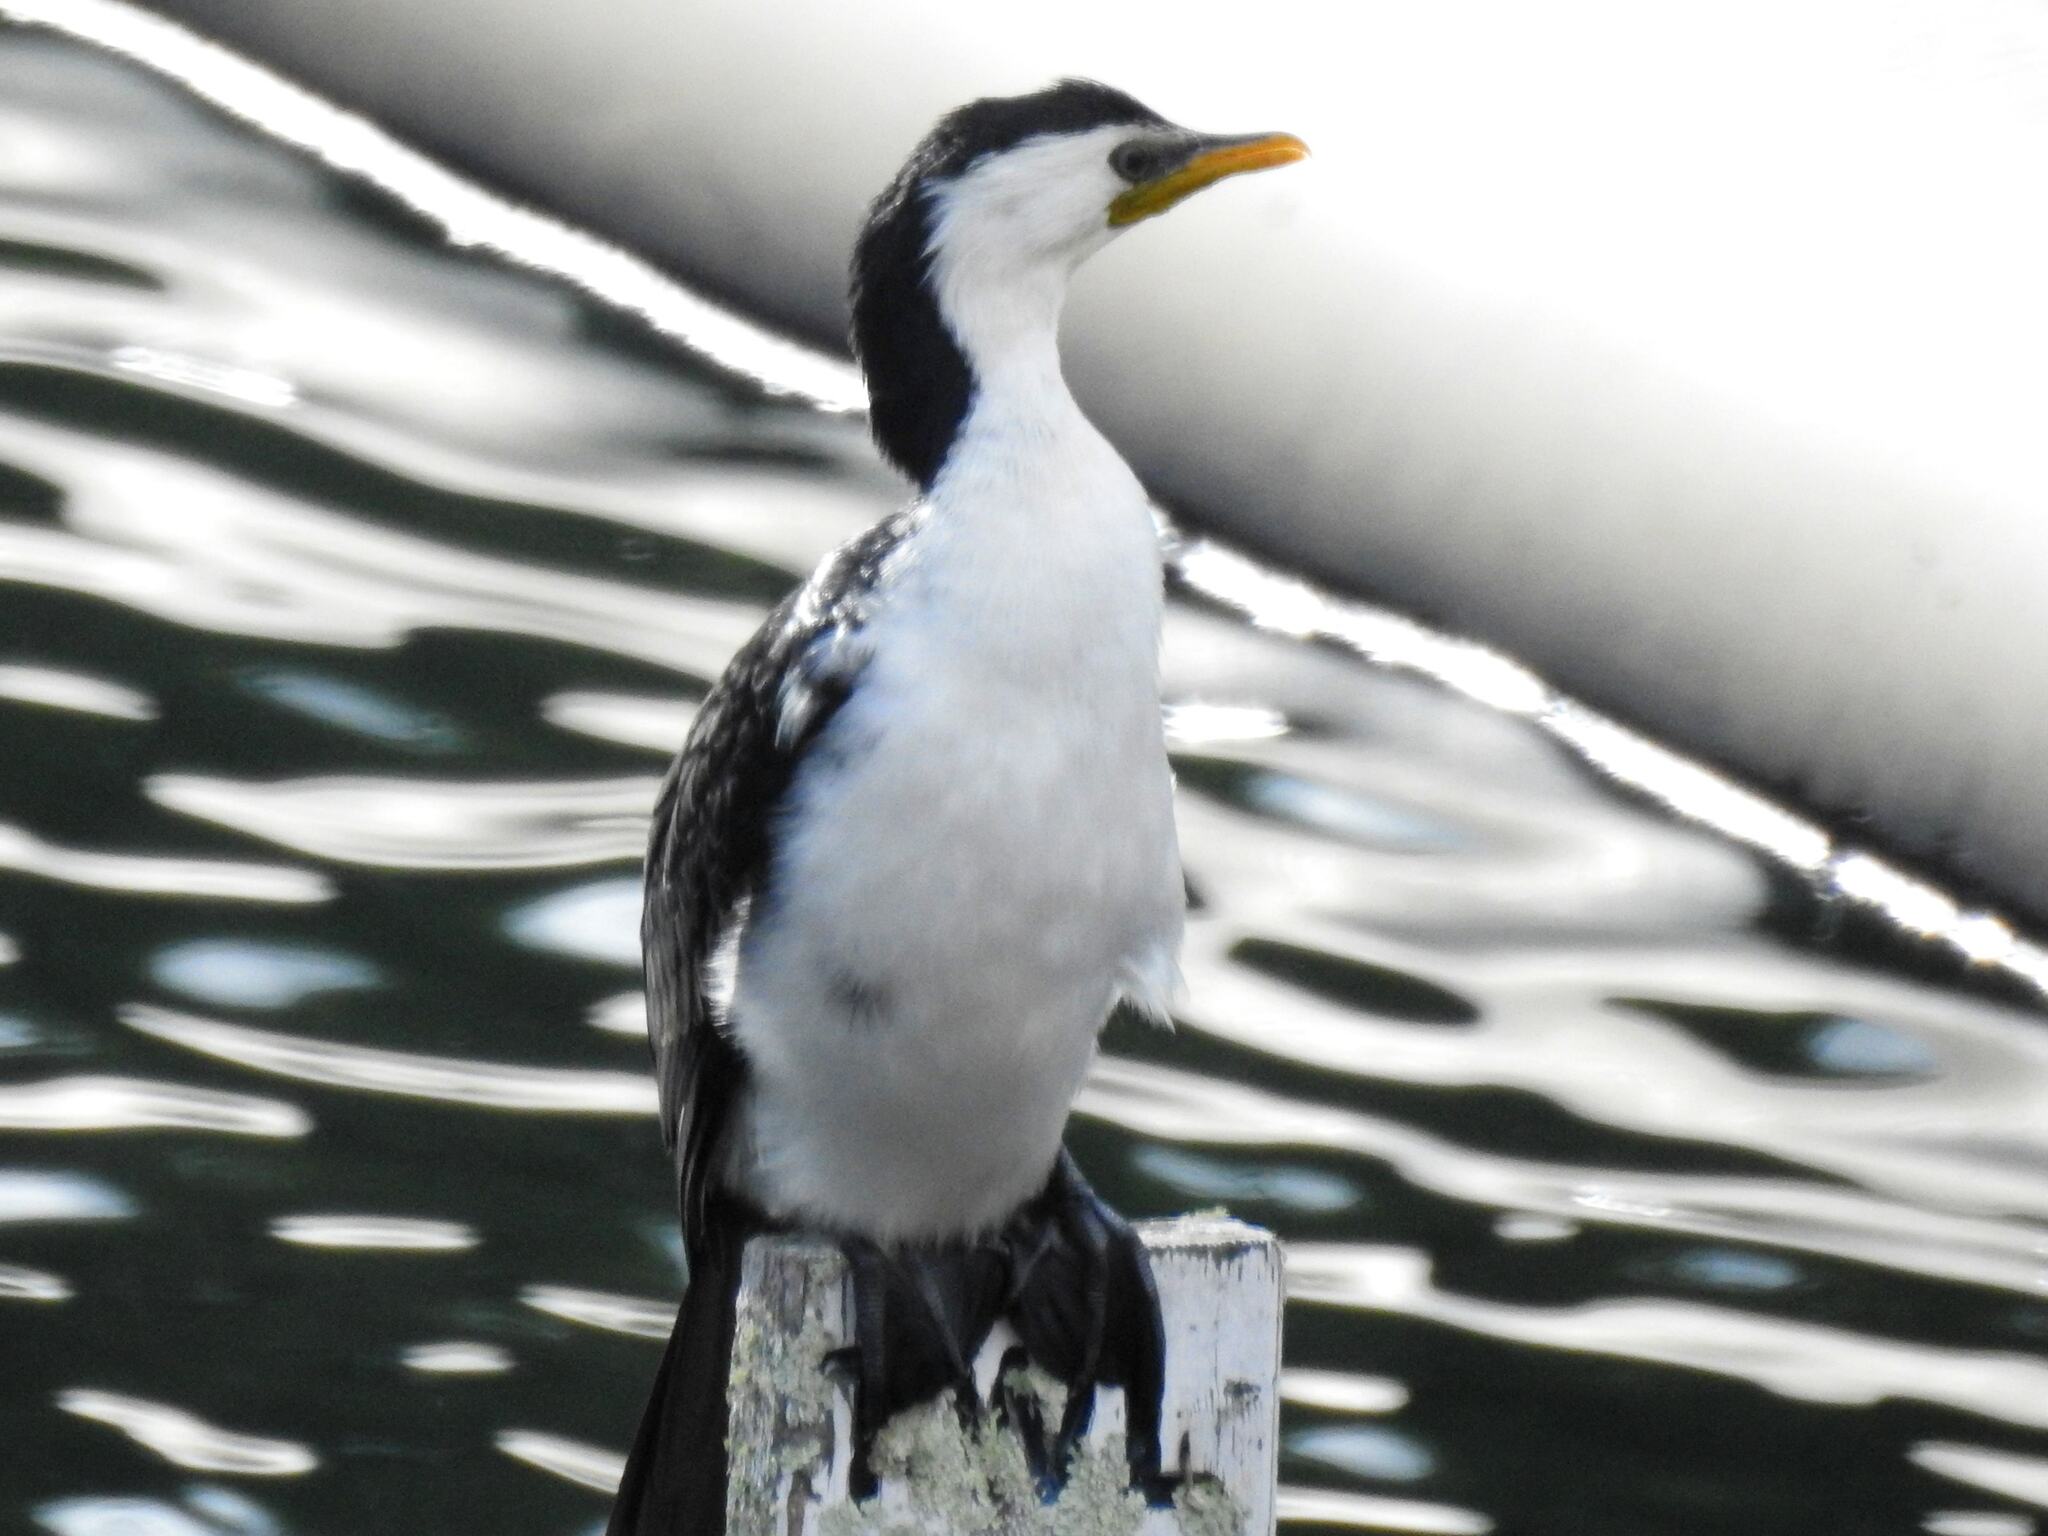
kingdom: Animalia
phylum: Chordata
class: Aves
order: Suliformes
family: Phalacrocoracidae
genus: Microcarbo
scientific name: Microcarbo melanoleucos
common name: Little pied cormorant
